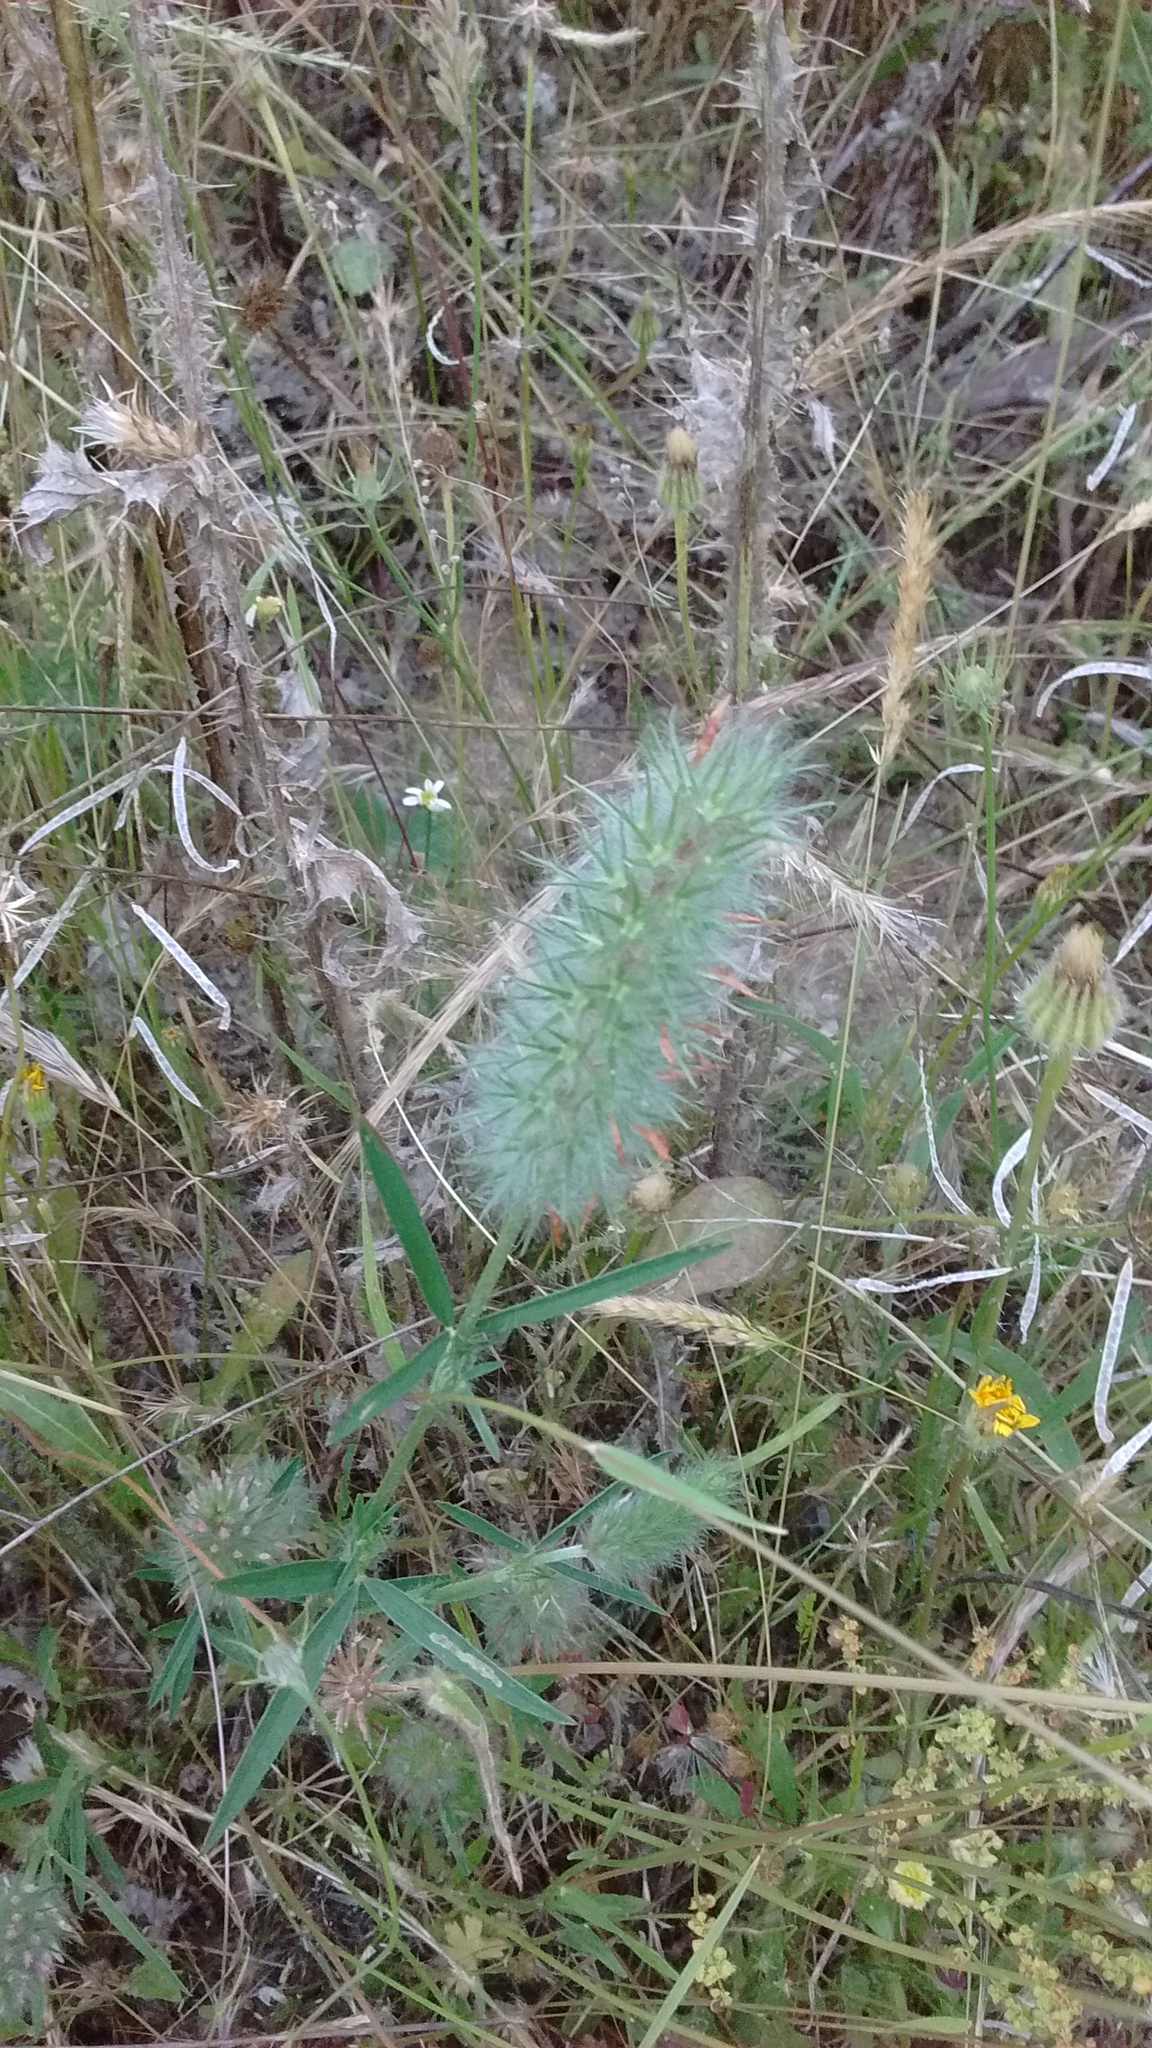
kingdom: Plantae
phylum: Tracheophyta
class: Magnoliopsida
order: Fabales
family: Fabaceae
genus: Trifolium
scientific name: Trifolium angustifolium
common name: Narrow clover
